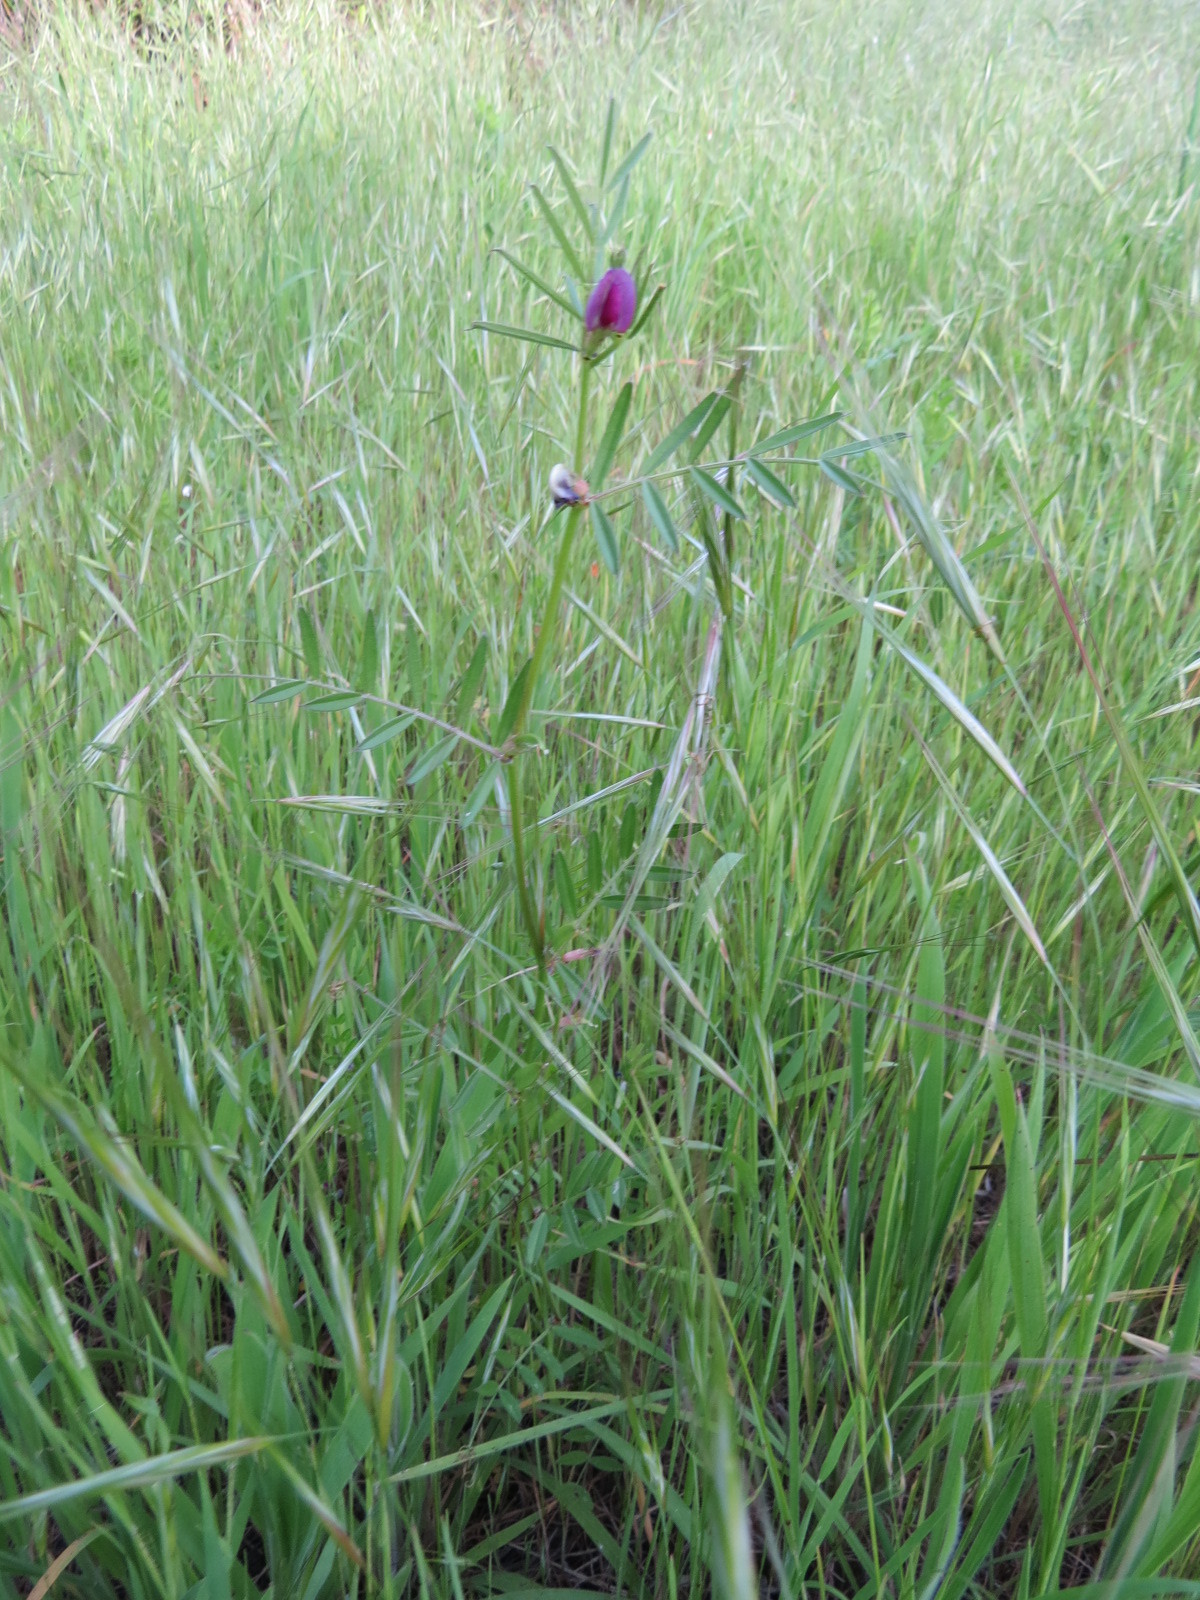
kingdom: Plantae
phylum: Tracheophyta
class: Magnoliopsida
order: Fabales
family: Fabaceae
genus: Vicia
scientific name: Vicia sativa
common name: Garden vetch
